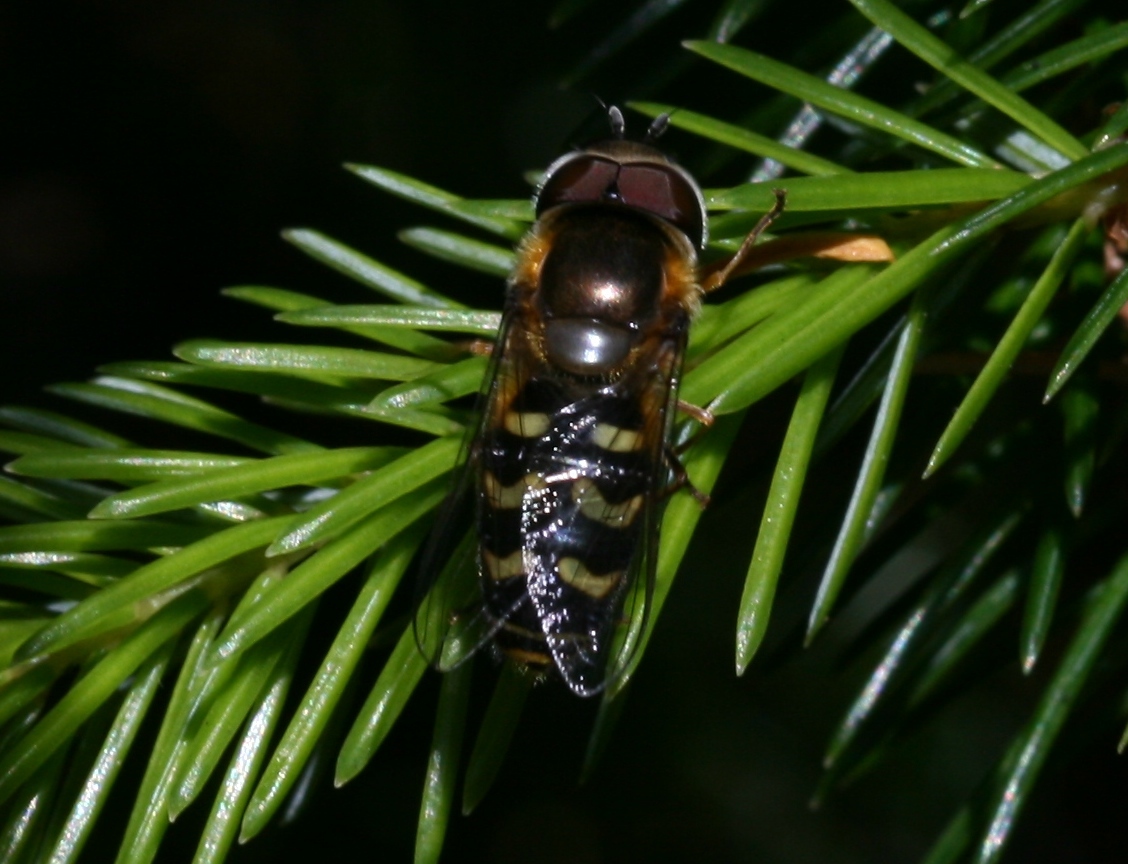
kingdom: Animalia
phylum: Arthropoda
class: Insecta
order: Diptera
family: Syrphidae
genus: Scaeva
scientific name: Scaeva selenitica
